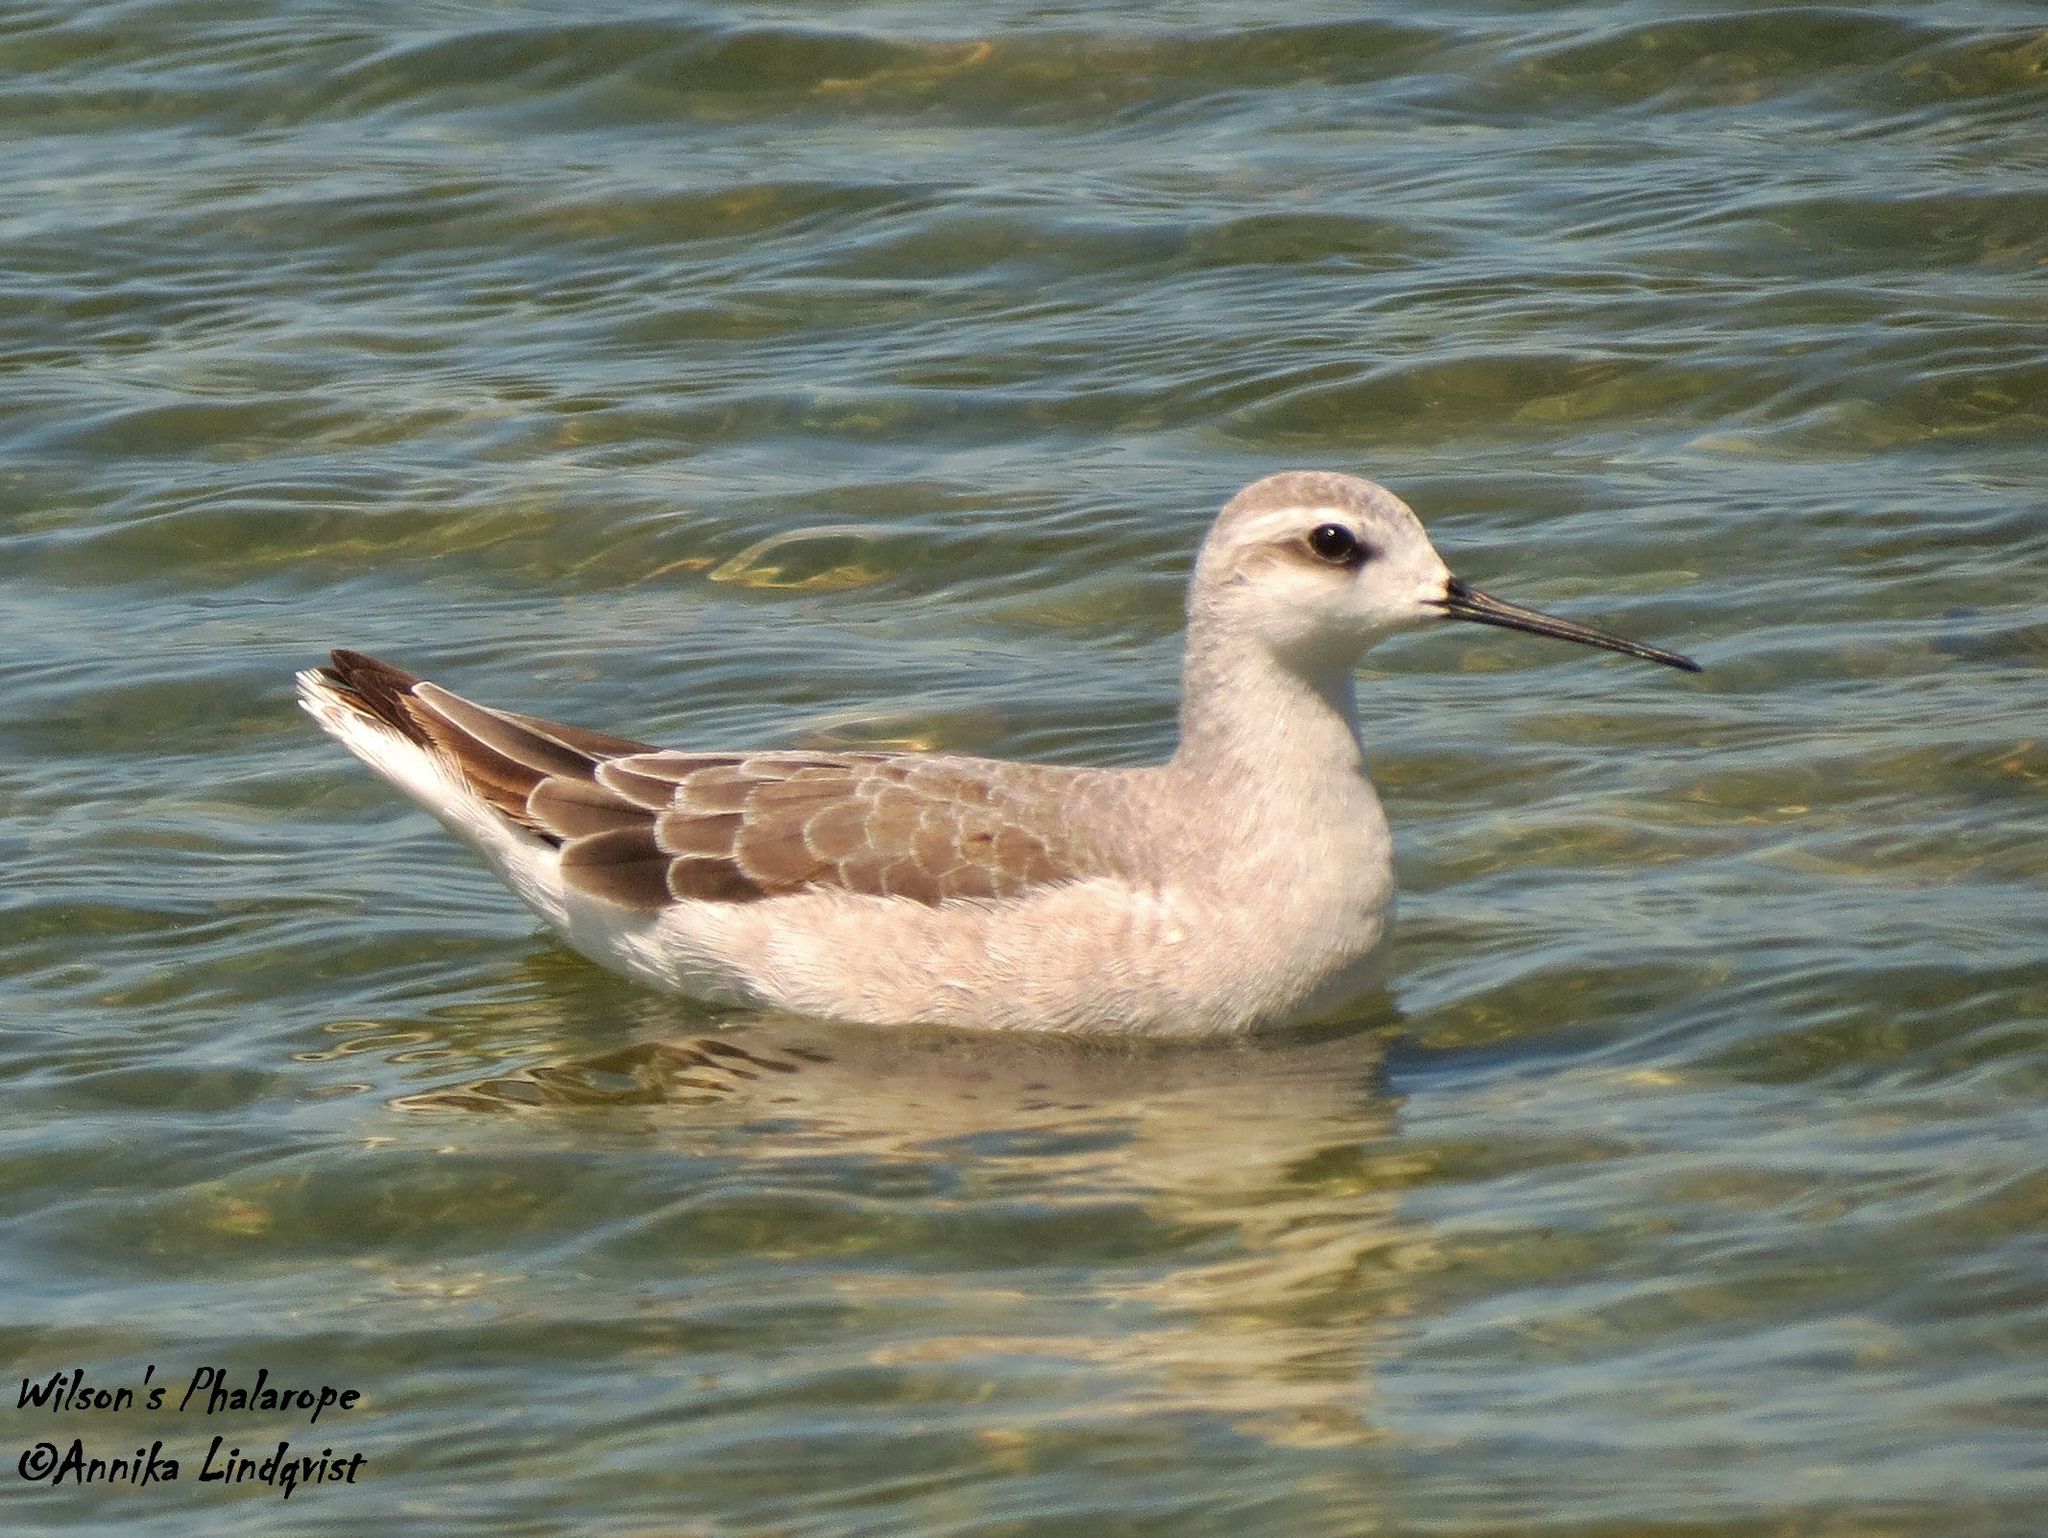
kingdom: Animalia
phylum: Chordata
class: Aves
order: Charadriiformes
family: Scolopacidae
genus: Phalaropus
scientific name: Phalaropus tricolor
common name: Wilson's phalarope
